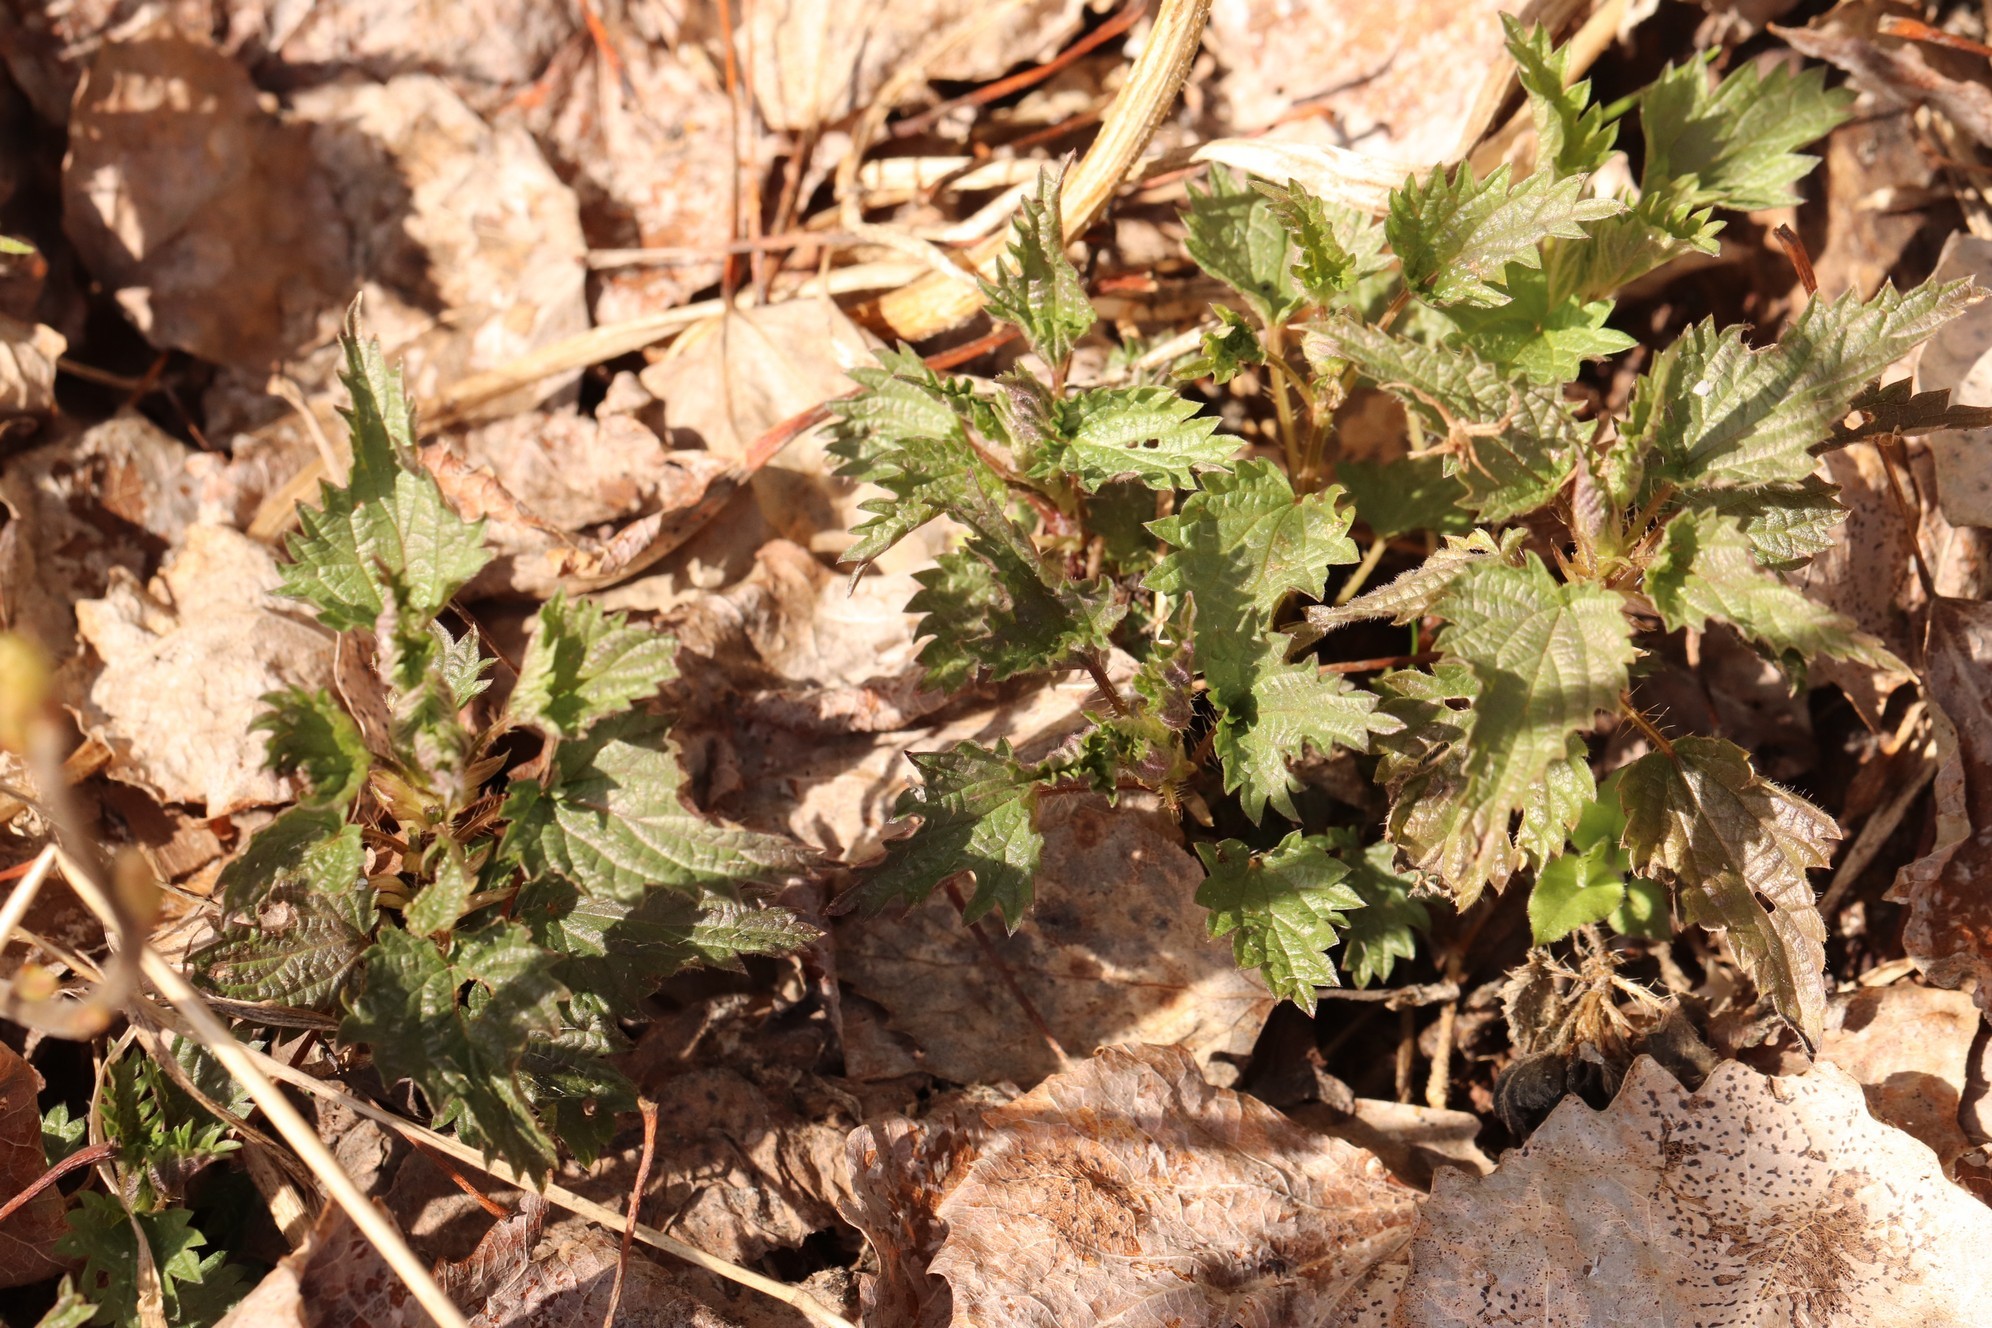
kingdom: Plantae
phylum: Tracheophyta
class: Magnoliopsida
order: Rosales
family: Urticaceae
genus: Urtica
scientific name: Urtica dioica
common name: Common nettle
